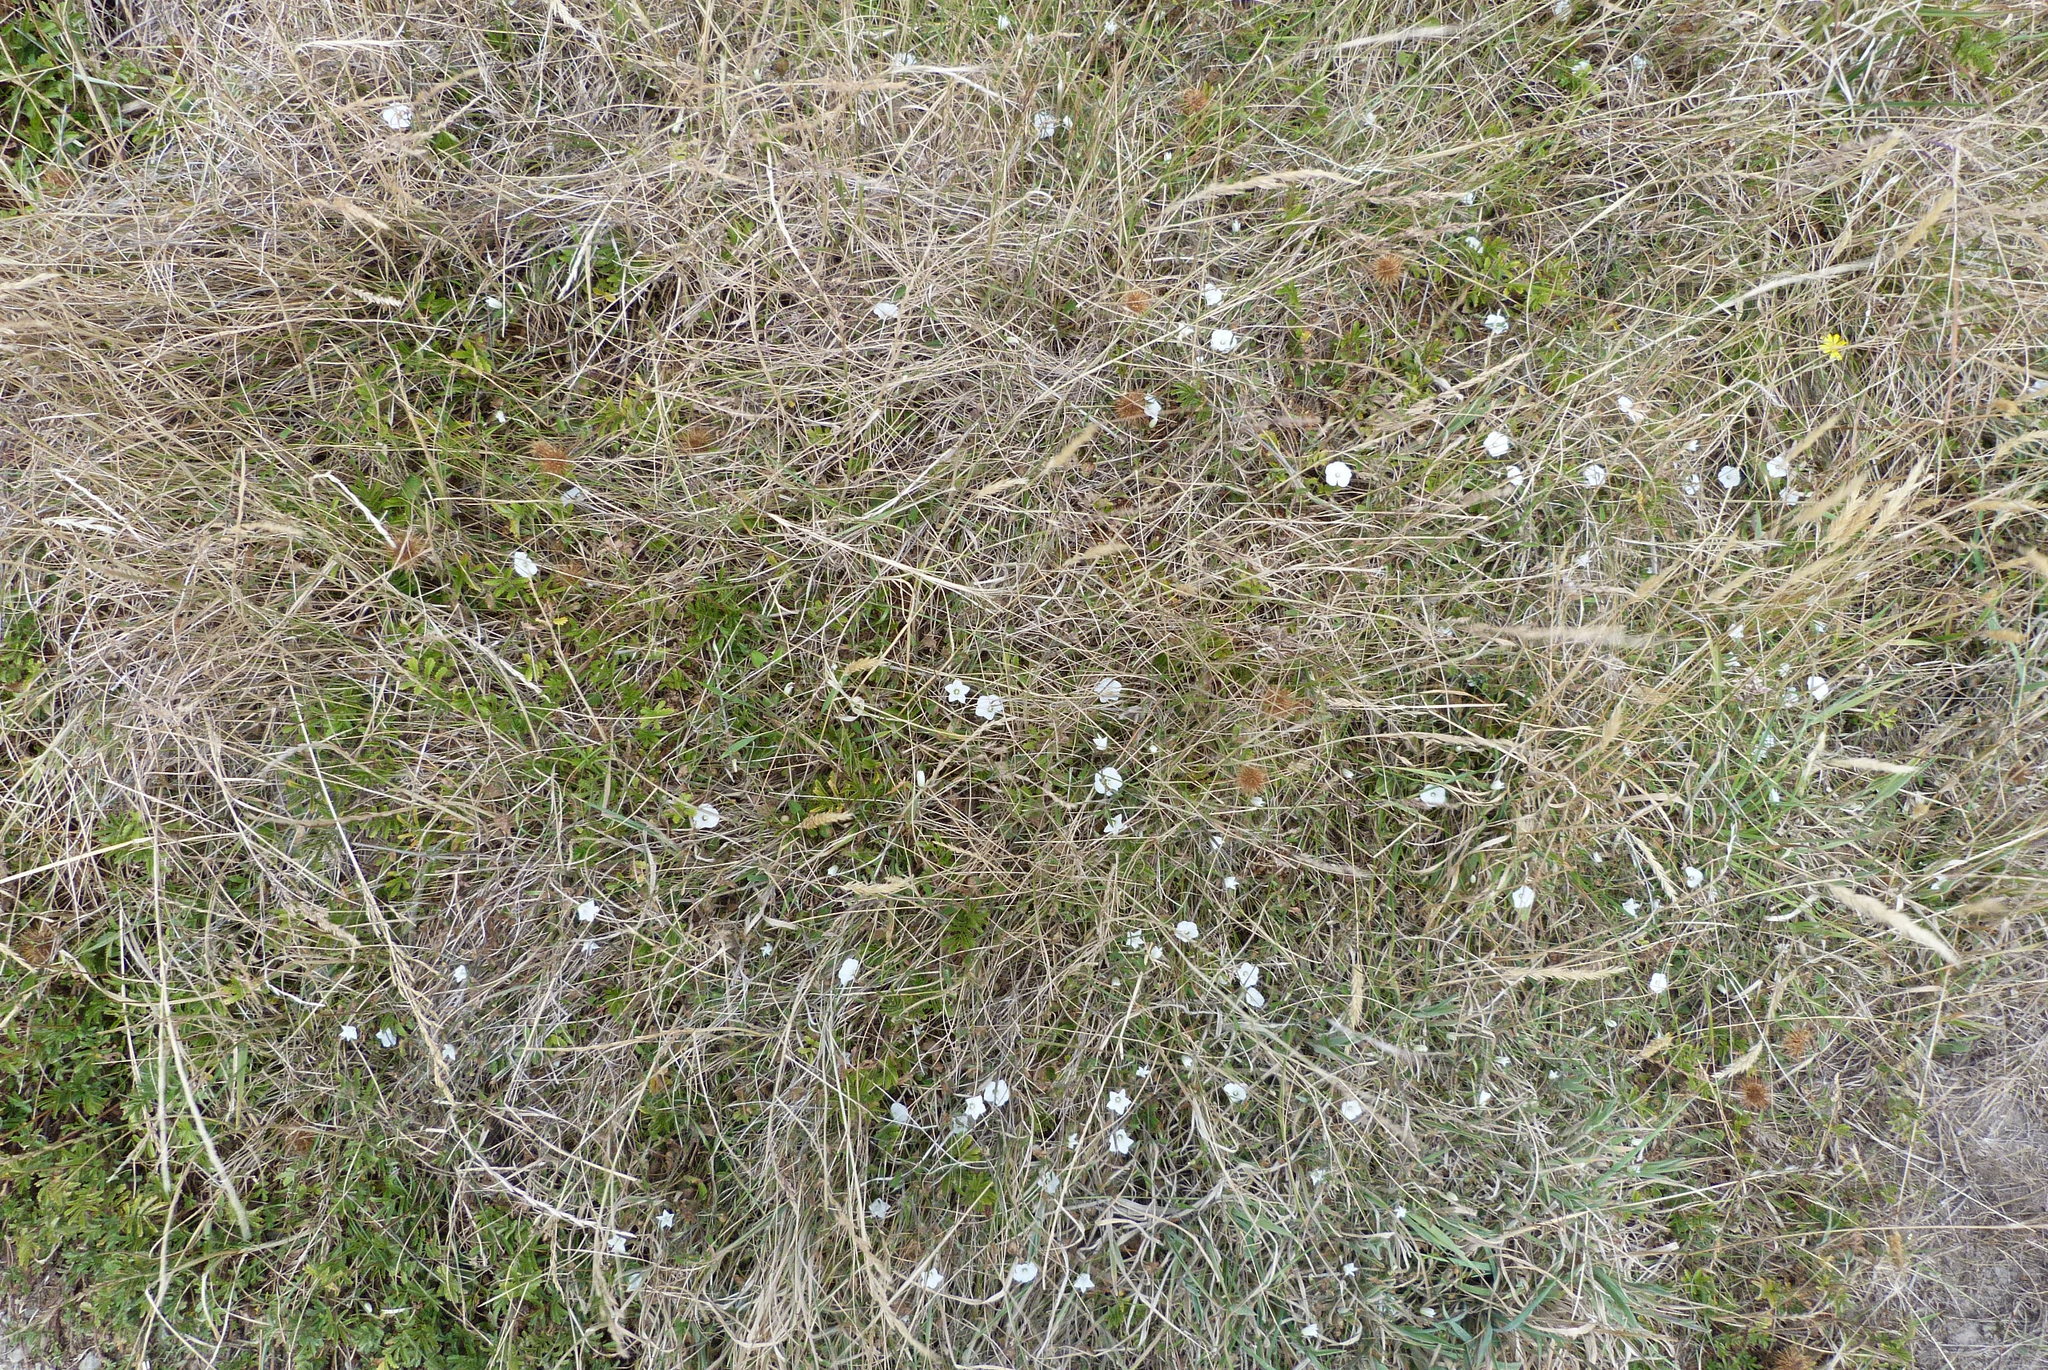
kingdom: Plantae
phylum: Tracheophyta
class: Magnoliopsida
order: Solanales
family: Convolvulaceae
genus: Convolvulus
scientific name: Convolvulus waitaha
